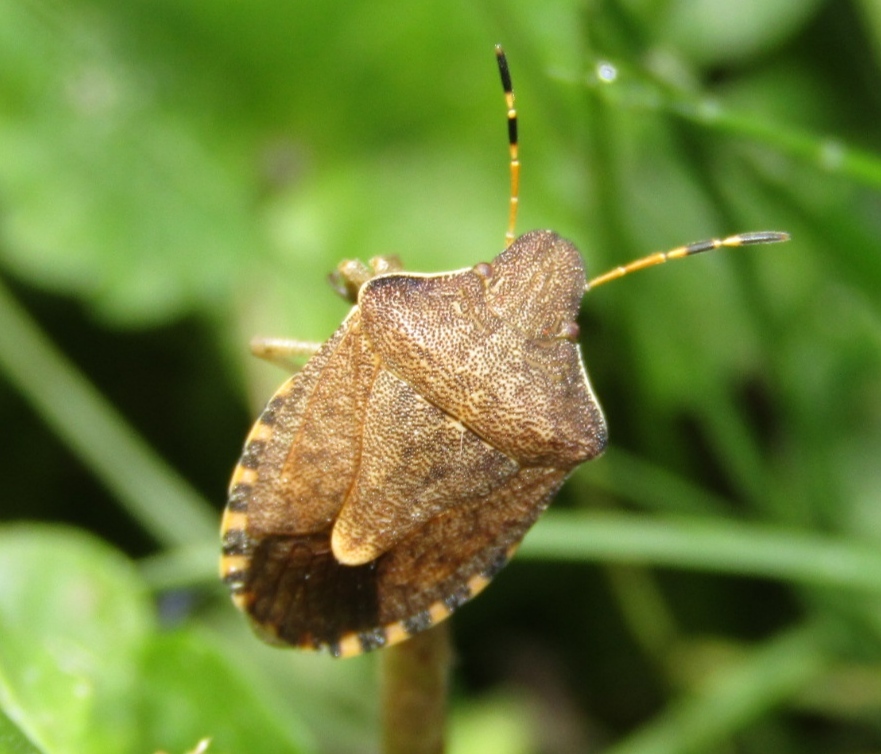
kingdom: Animalia
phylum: Arthropoda
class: Insecta
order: Hemiptera
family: Pentatomidae
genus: Holcostethus
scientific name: Holcostethus strictus
